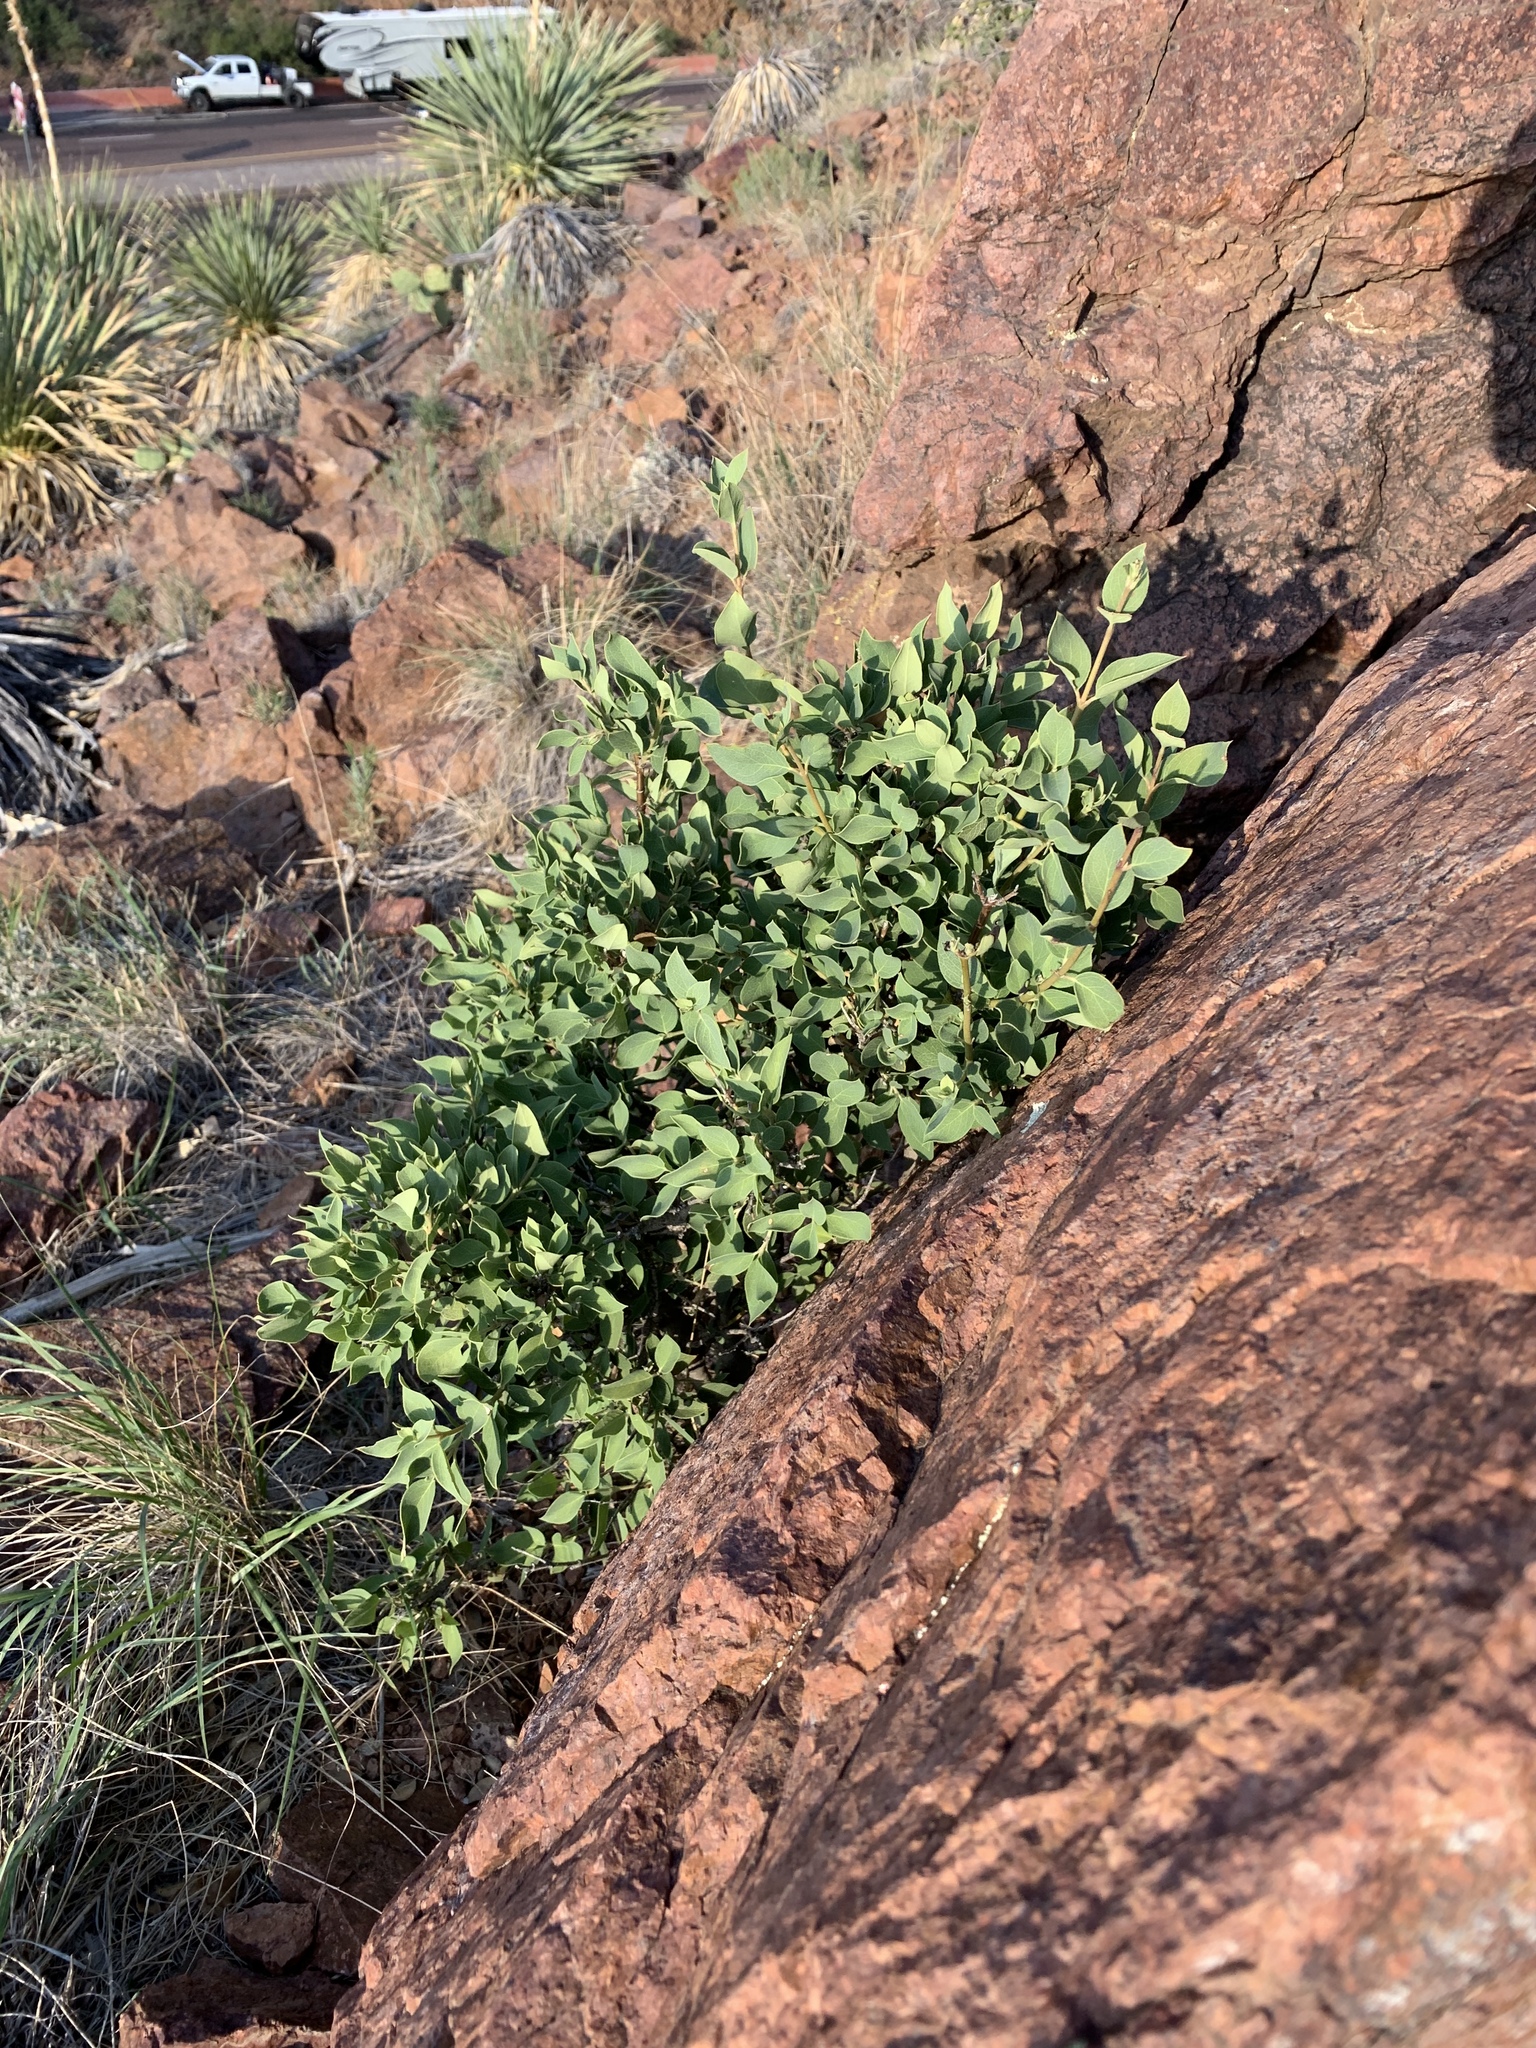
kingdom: Plantae
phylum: Tracheophyta
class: Magnoliopsida
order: Garryales
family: Garryaceae
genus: Garrya
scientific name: Garrya wrightii
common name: Wright's silktassel
